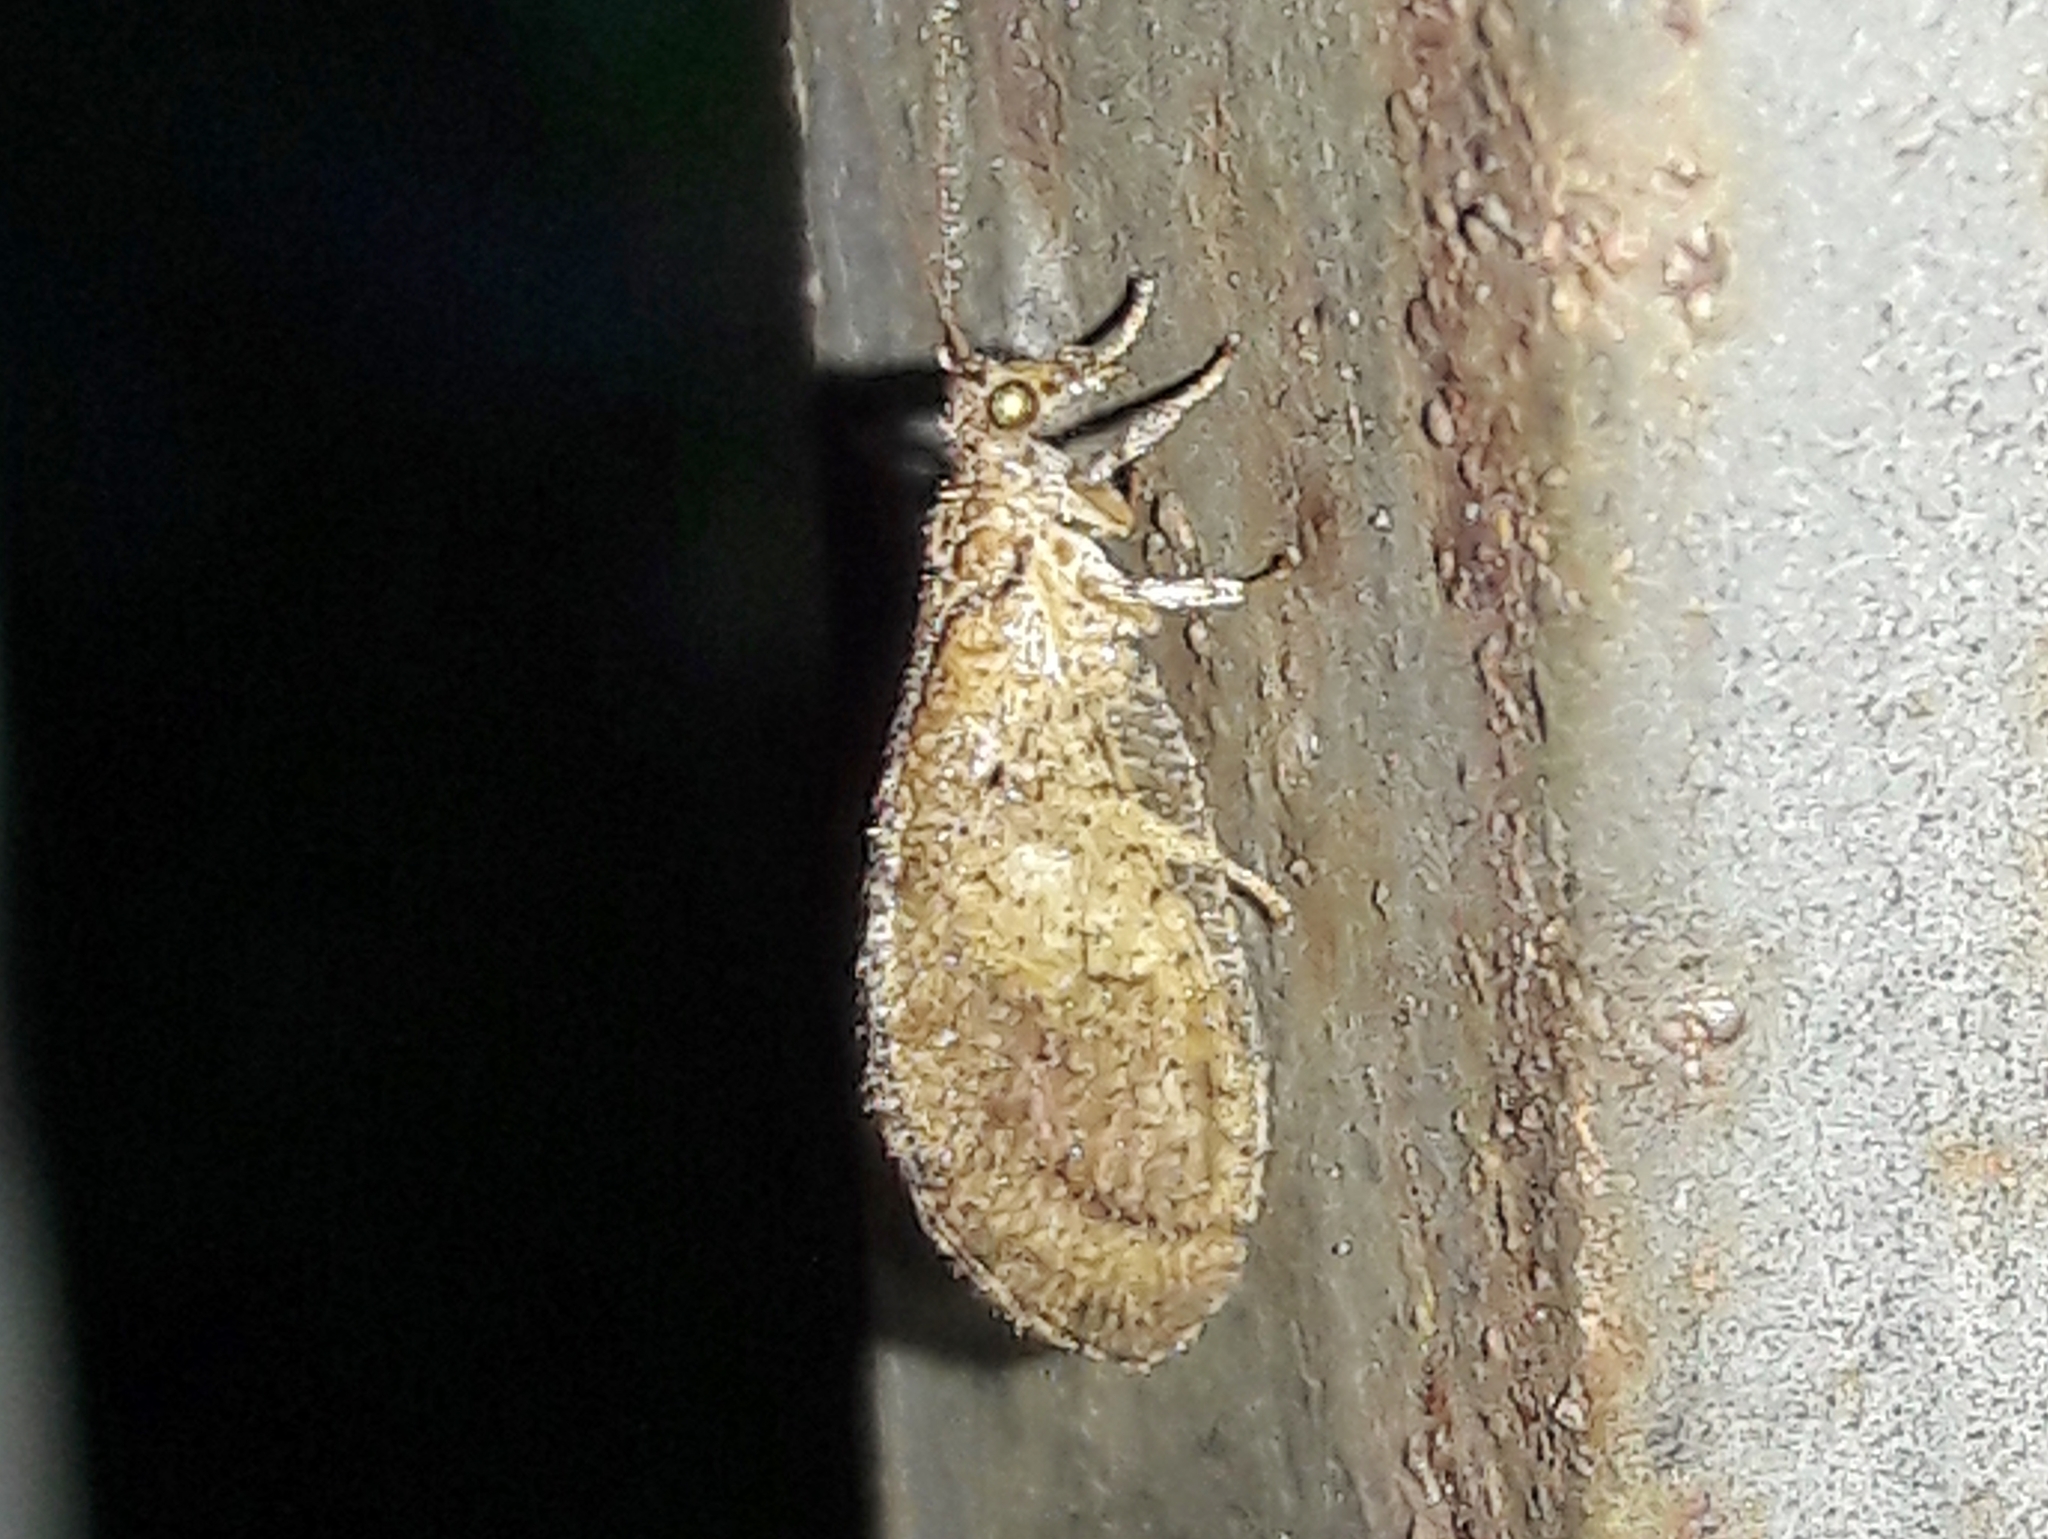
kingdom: Animalia
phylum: Arthropoda
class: Insecta
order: Neuroptera
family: Hemerobiidae
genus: Nusalala
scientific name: Nusalala tessellata
